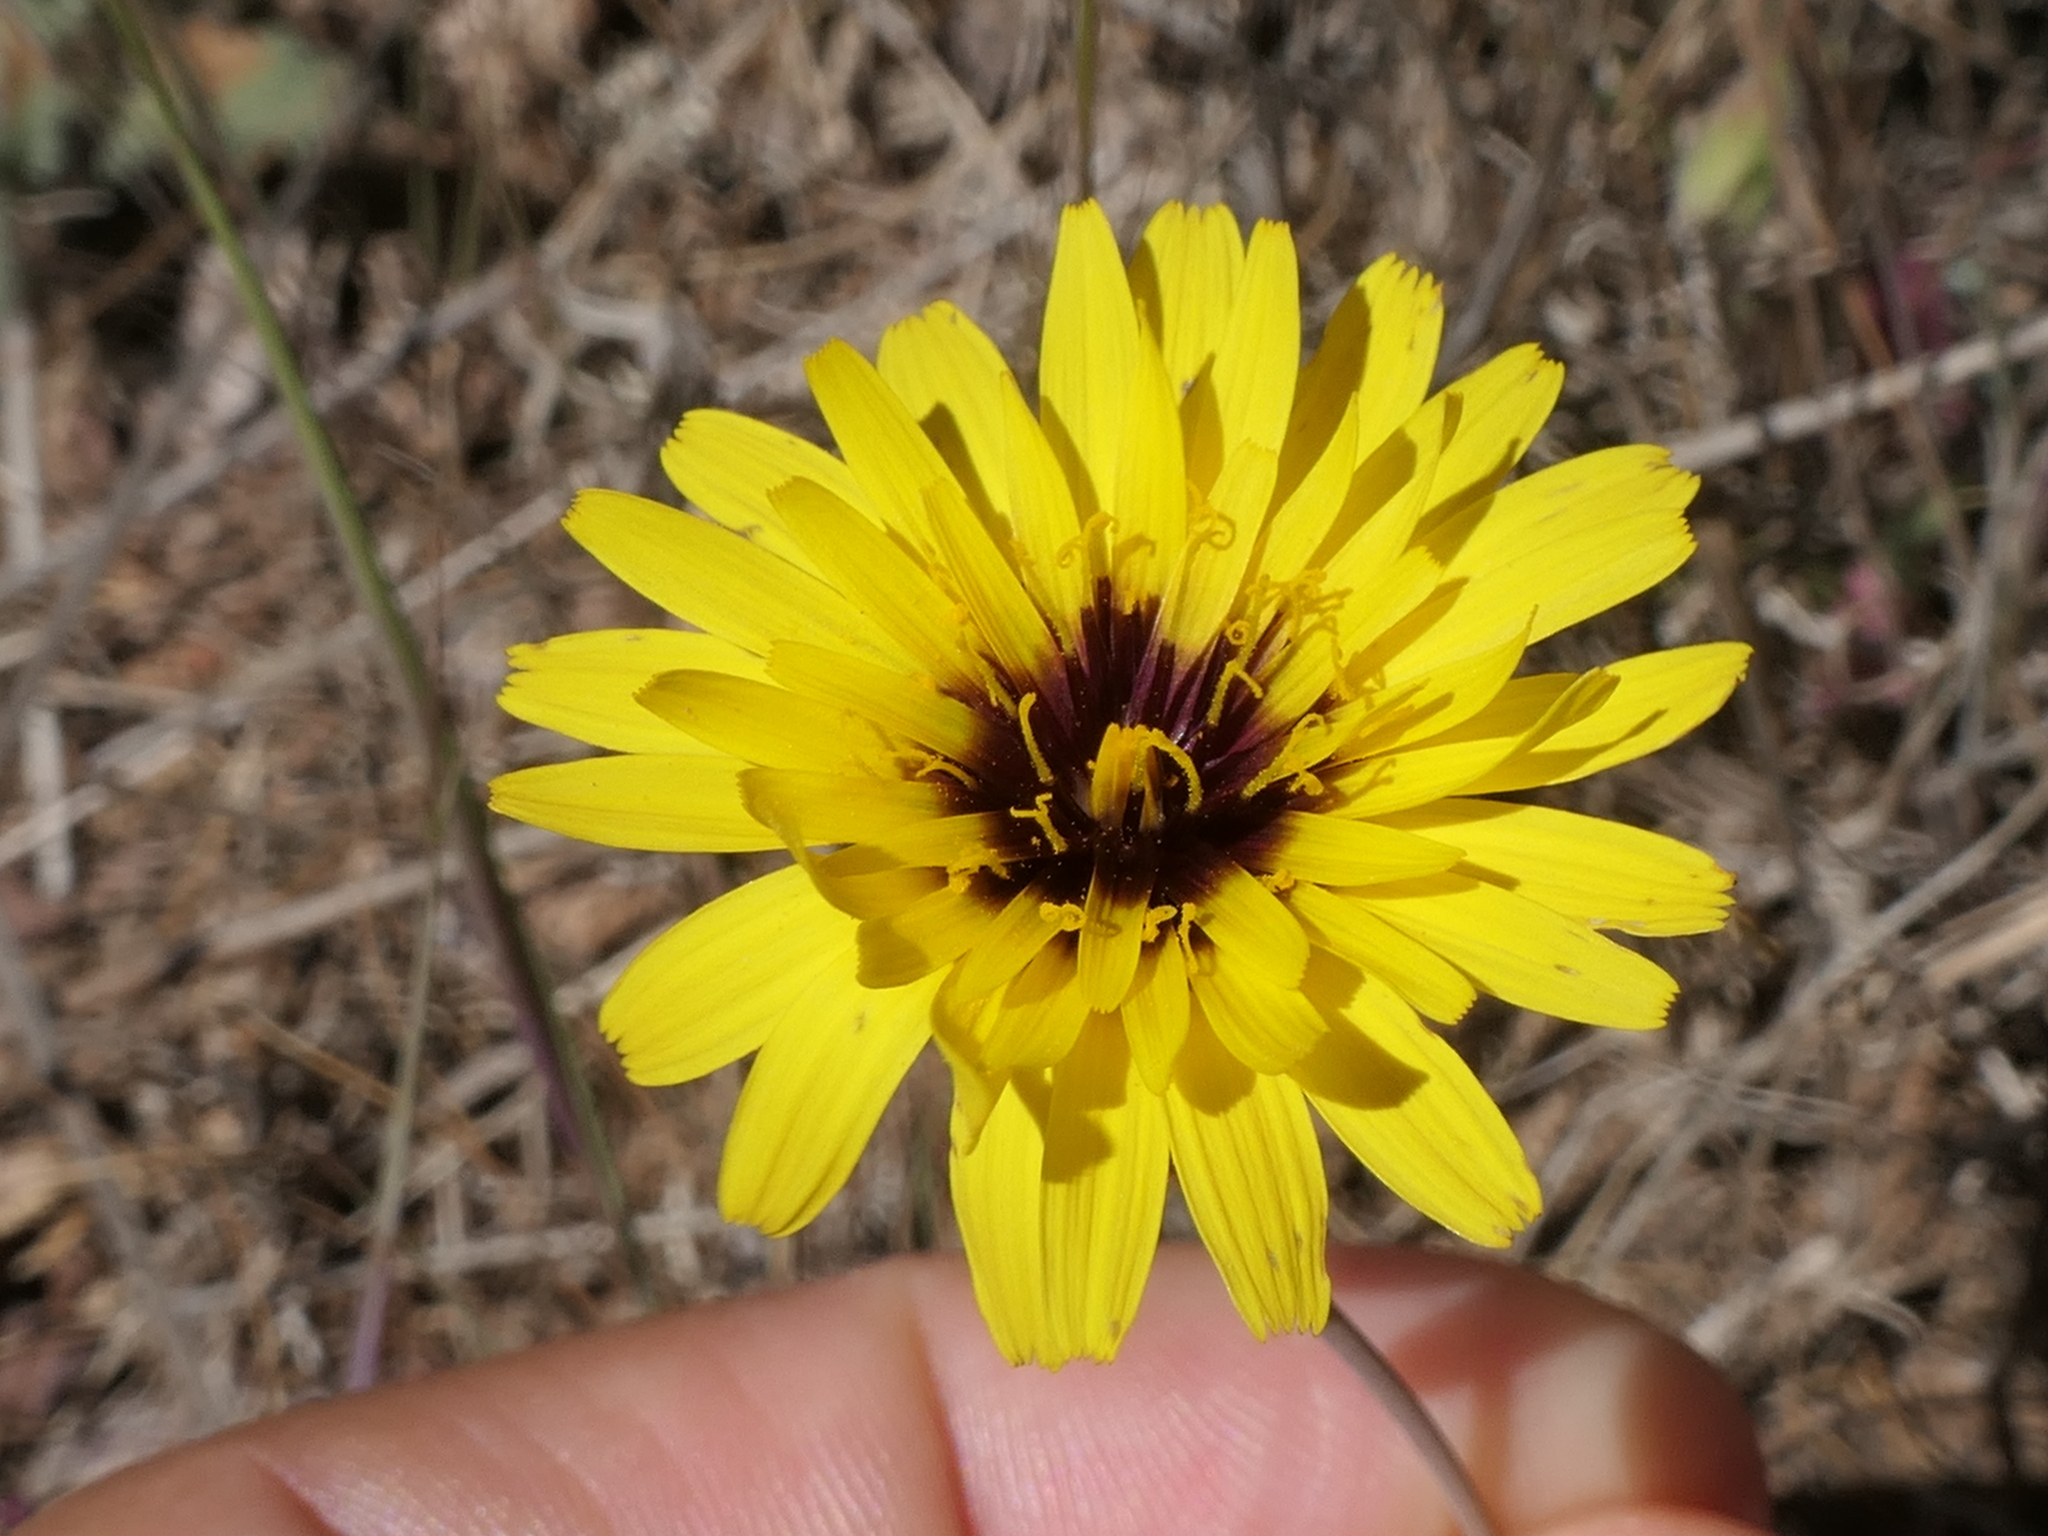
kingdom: Plantae
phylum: Tracheophyta
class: Magnoliopsida
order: Asterales
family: Asteraceae
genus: Reichardia
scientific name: Reichardia tingitana
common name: Reichardia
